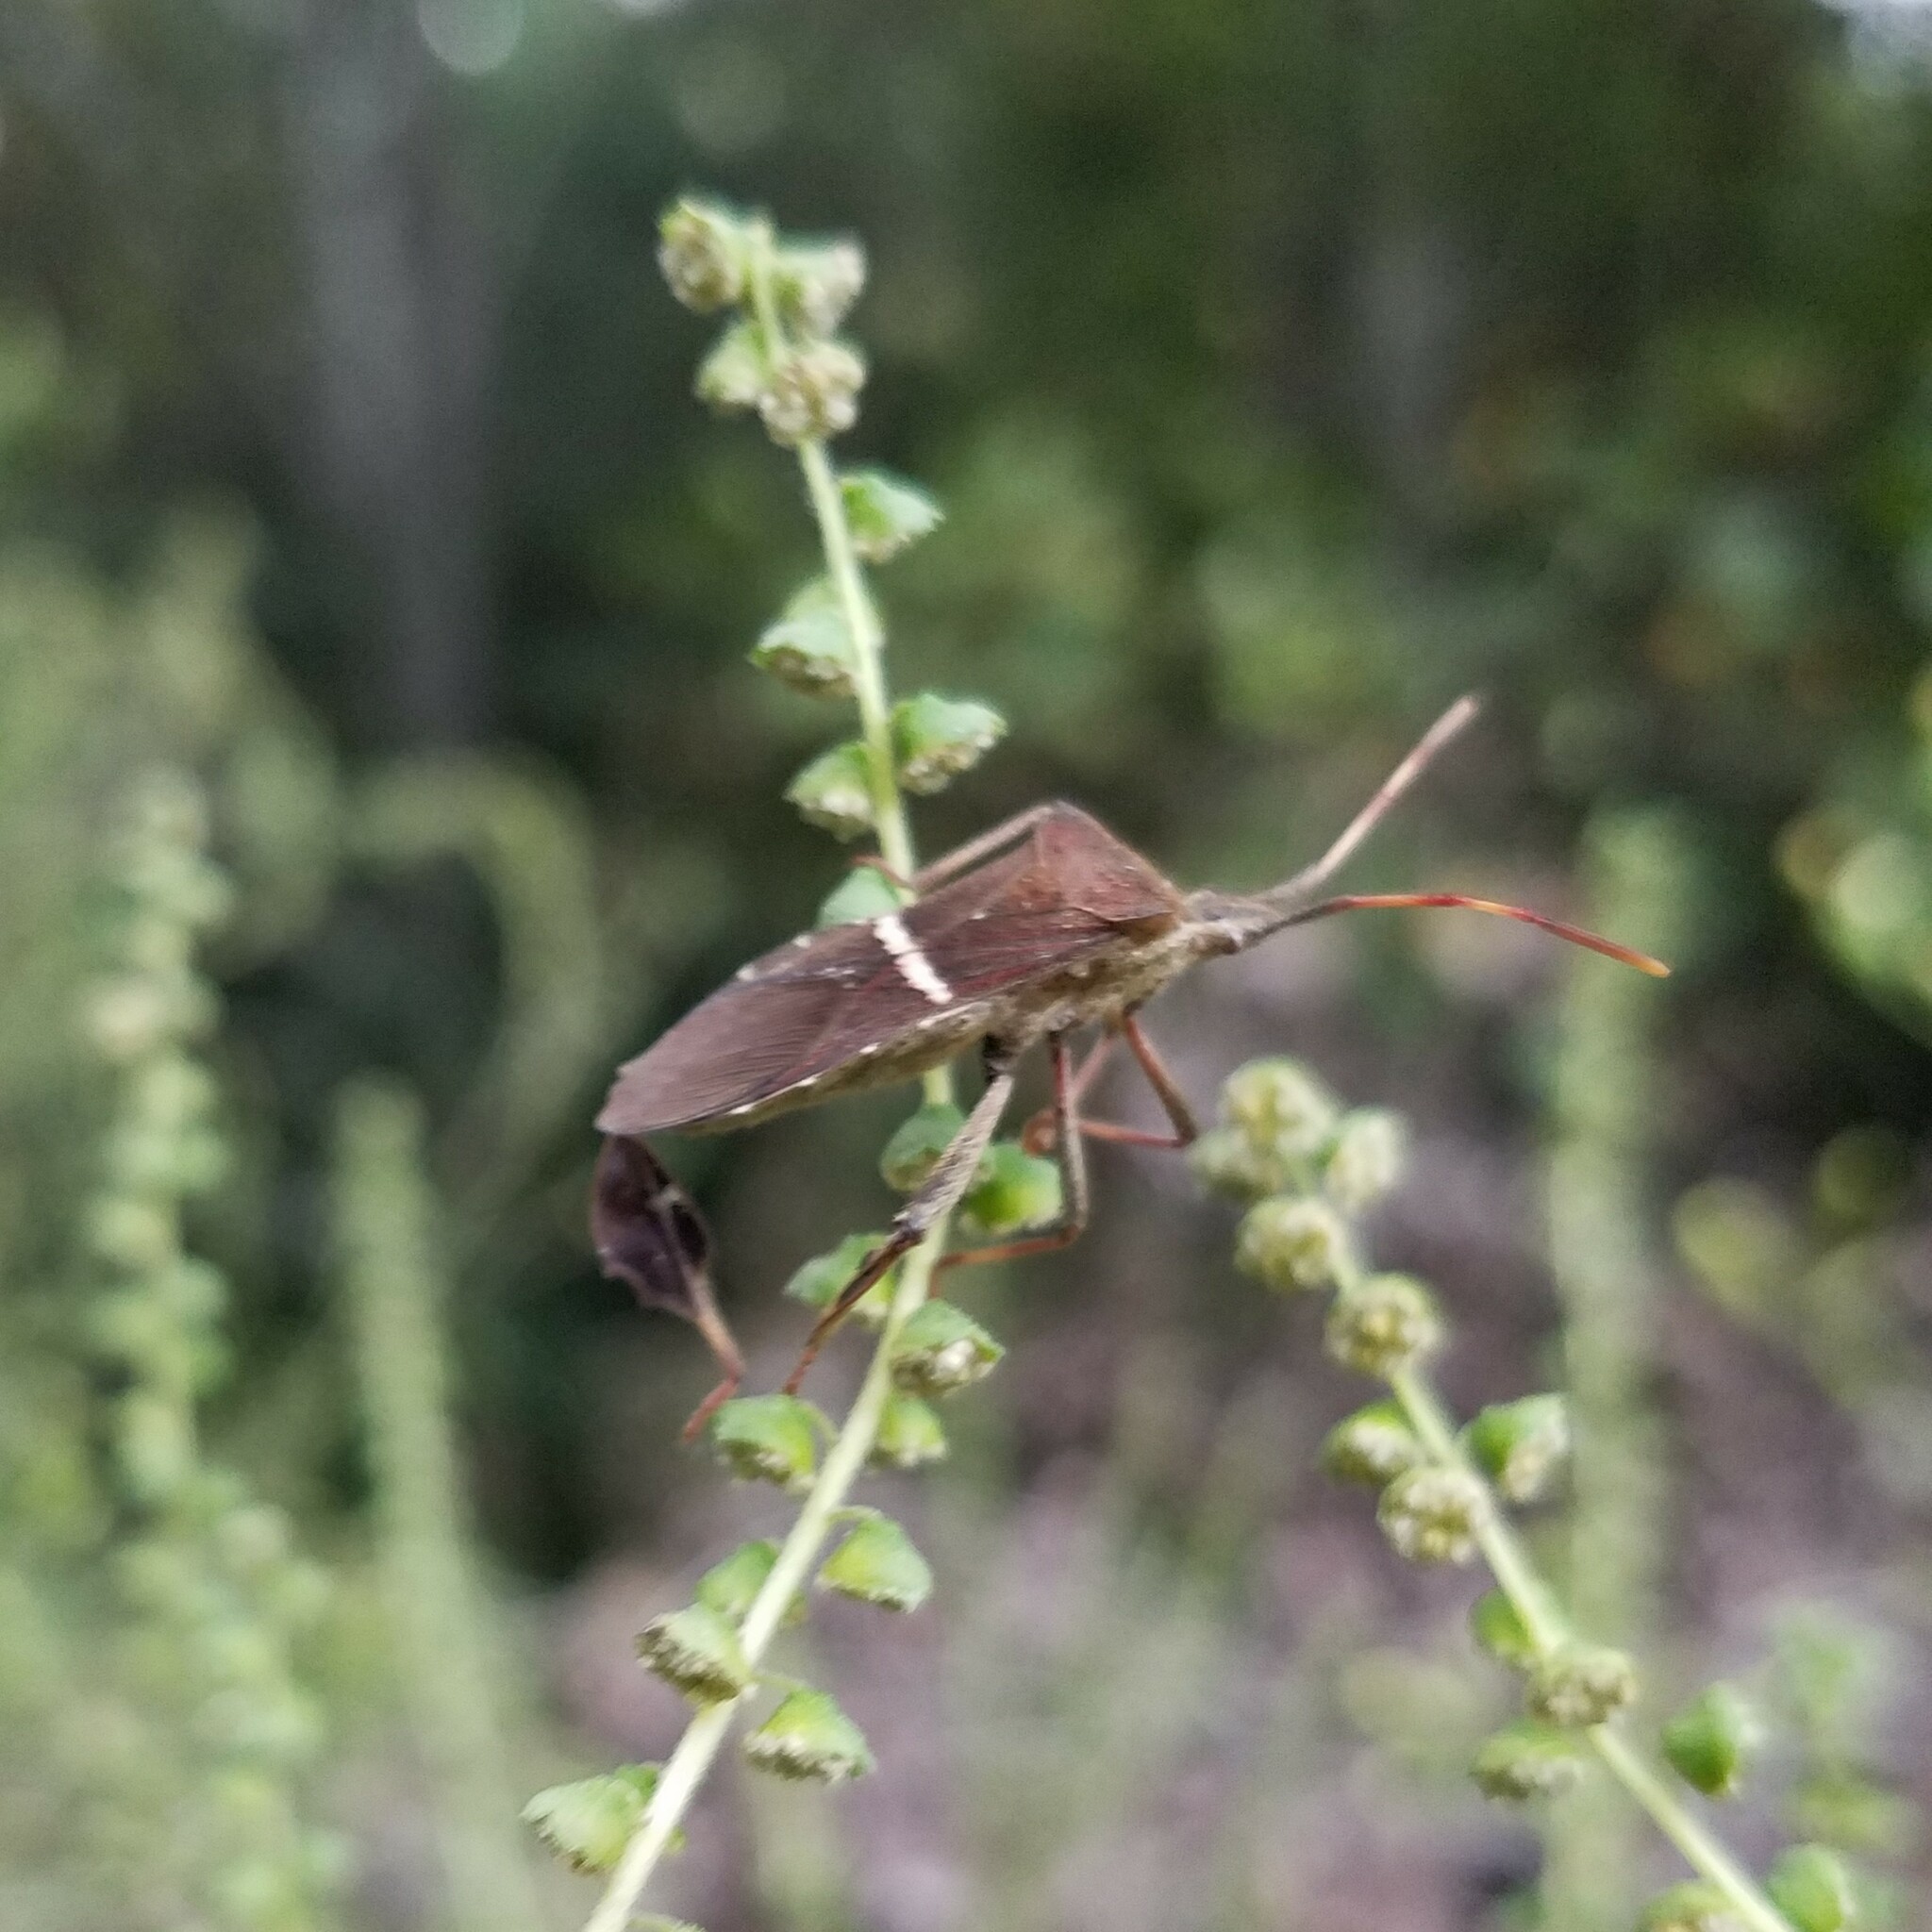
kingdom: Animalia
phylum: Arthropoda
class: Insecta
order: Hemiptera
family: Coreidae
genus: Leptoglossus
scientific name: Leptoglossus phyllopus
